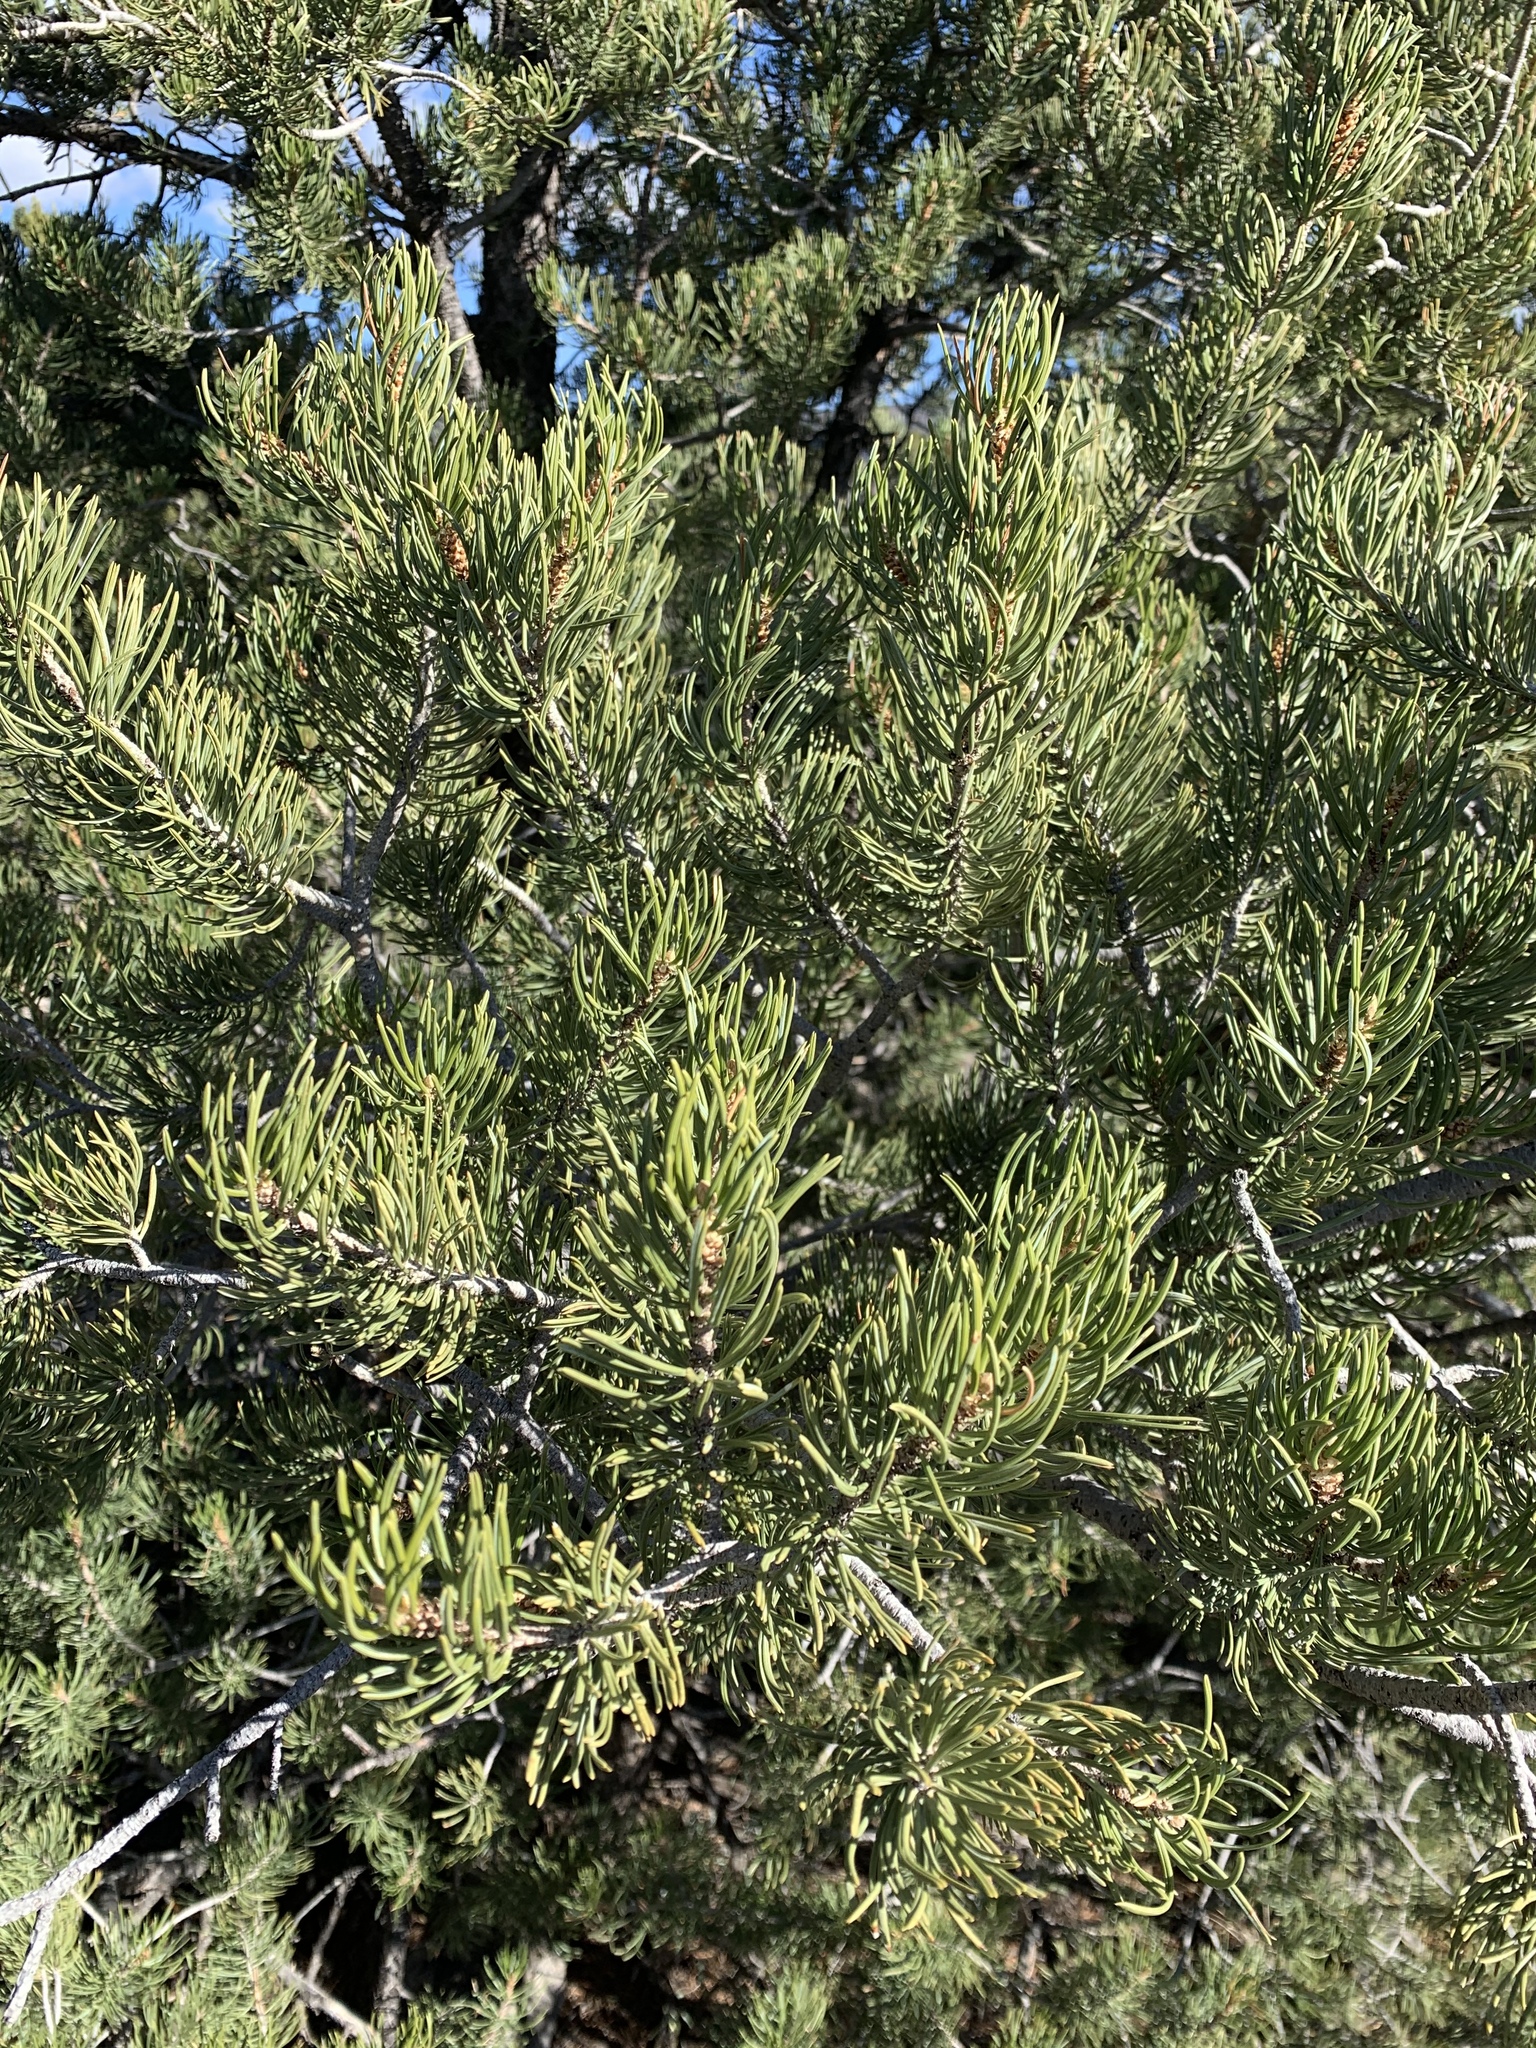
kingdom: Plantae
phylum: Tracheophyta
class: Pinopsida
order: Pinales
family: Pinaceae
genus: Pinus
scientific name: Pinus edulis
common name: Colorado pinyon
